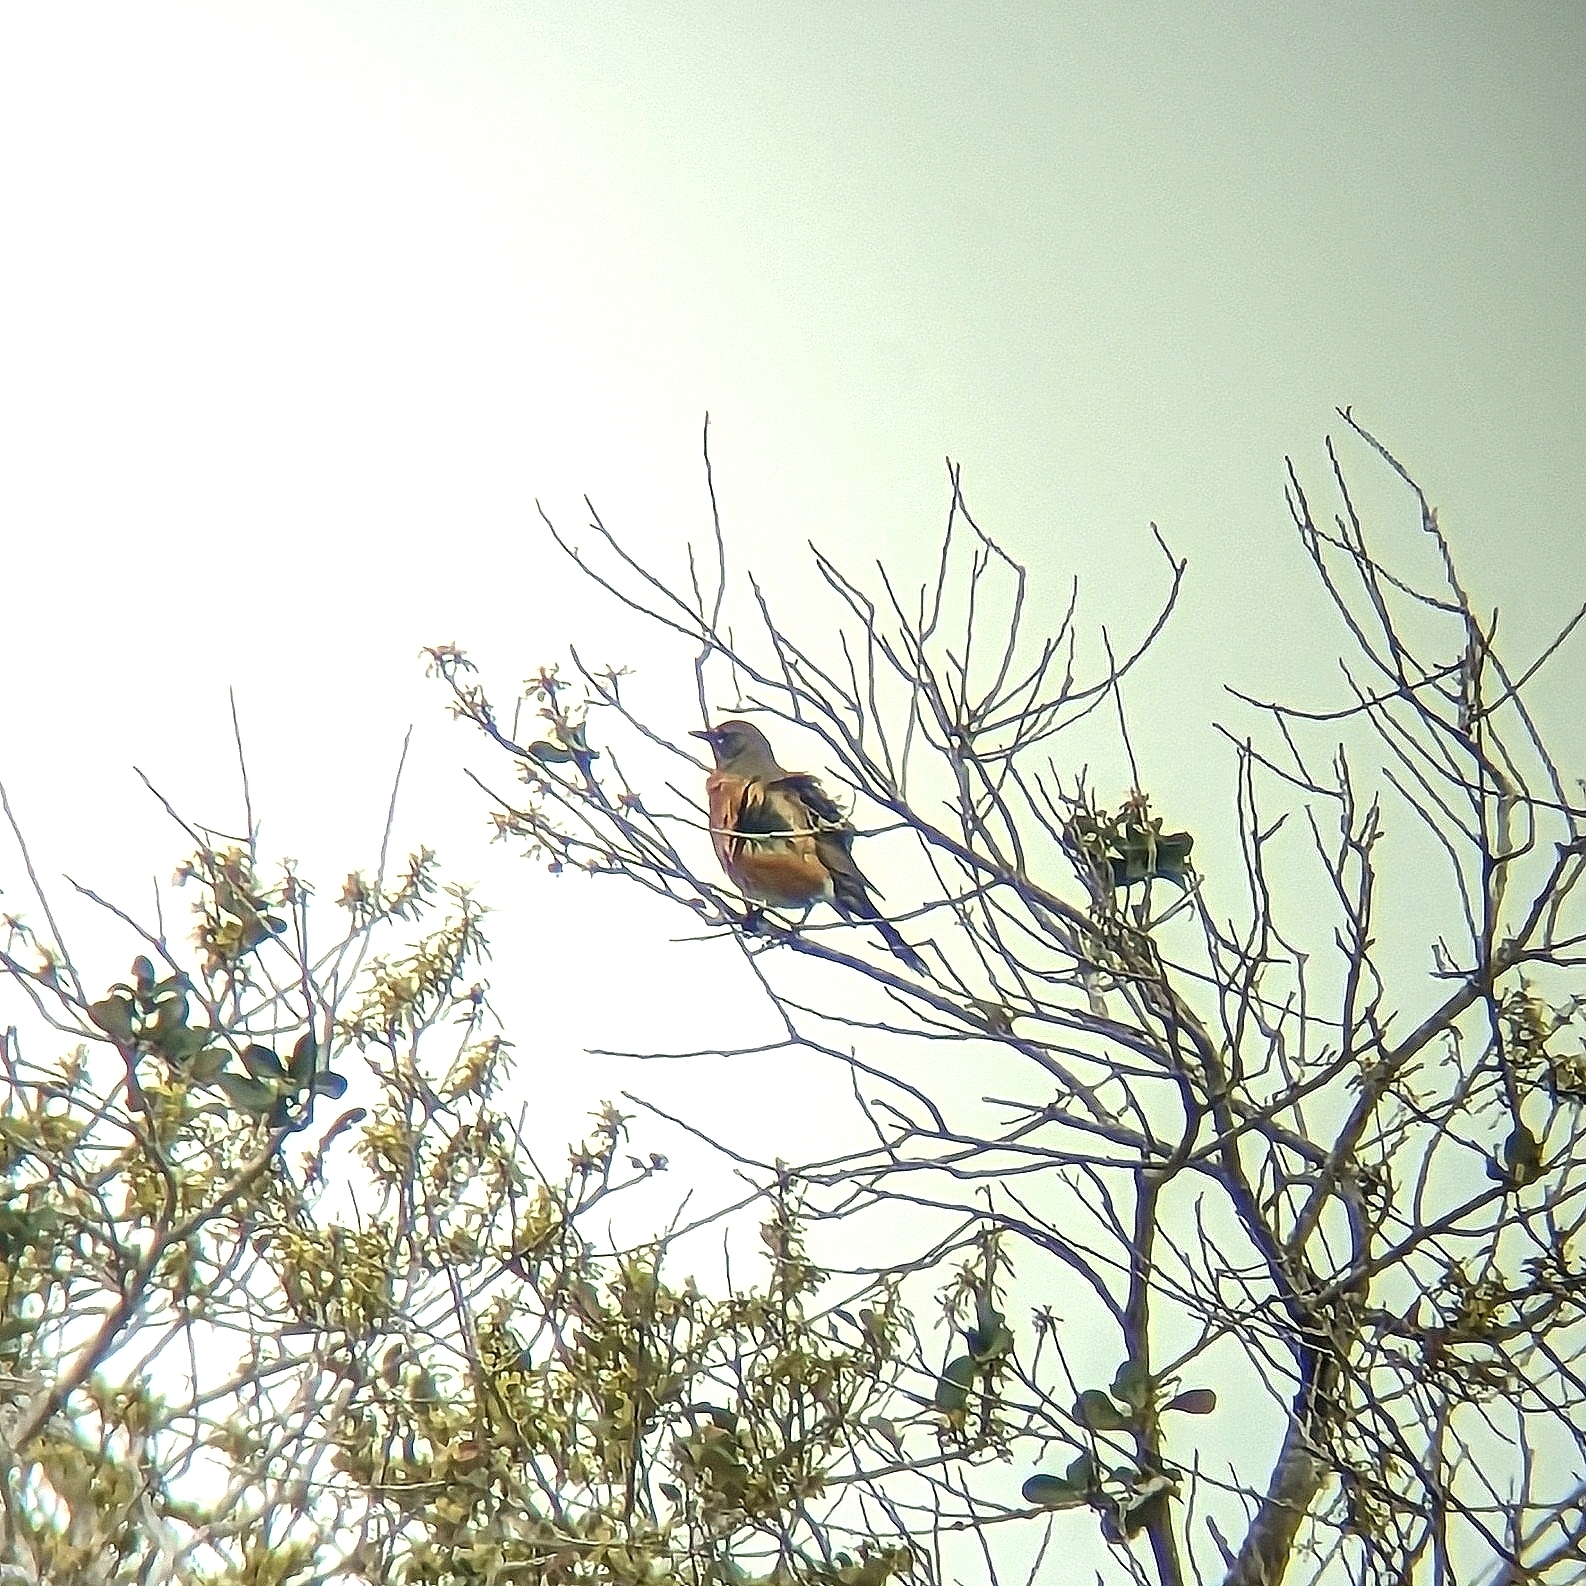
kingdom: Animalia
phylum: Chordata
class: Aves
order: Passeriformes
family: Turdidae
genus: Turdus
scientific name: Turdus migratorius
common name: American robin
